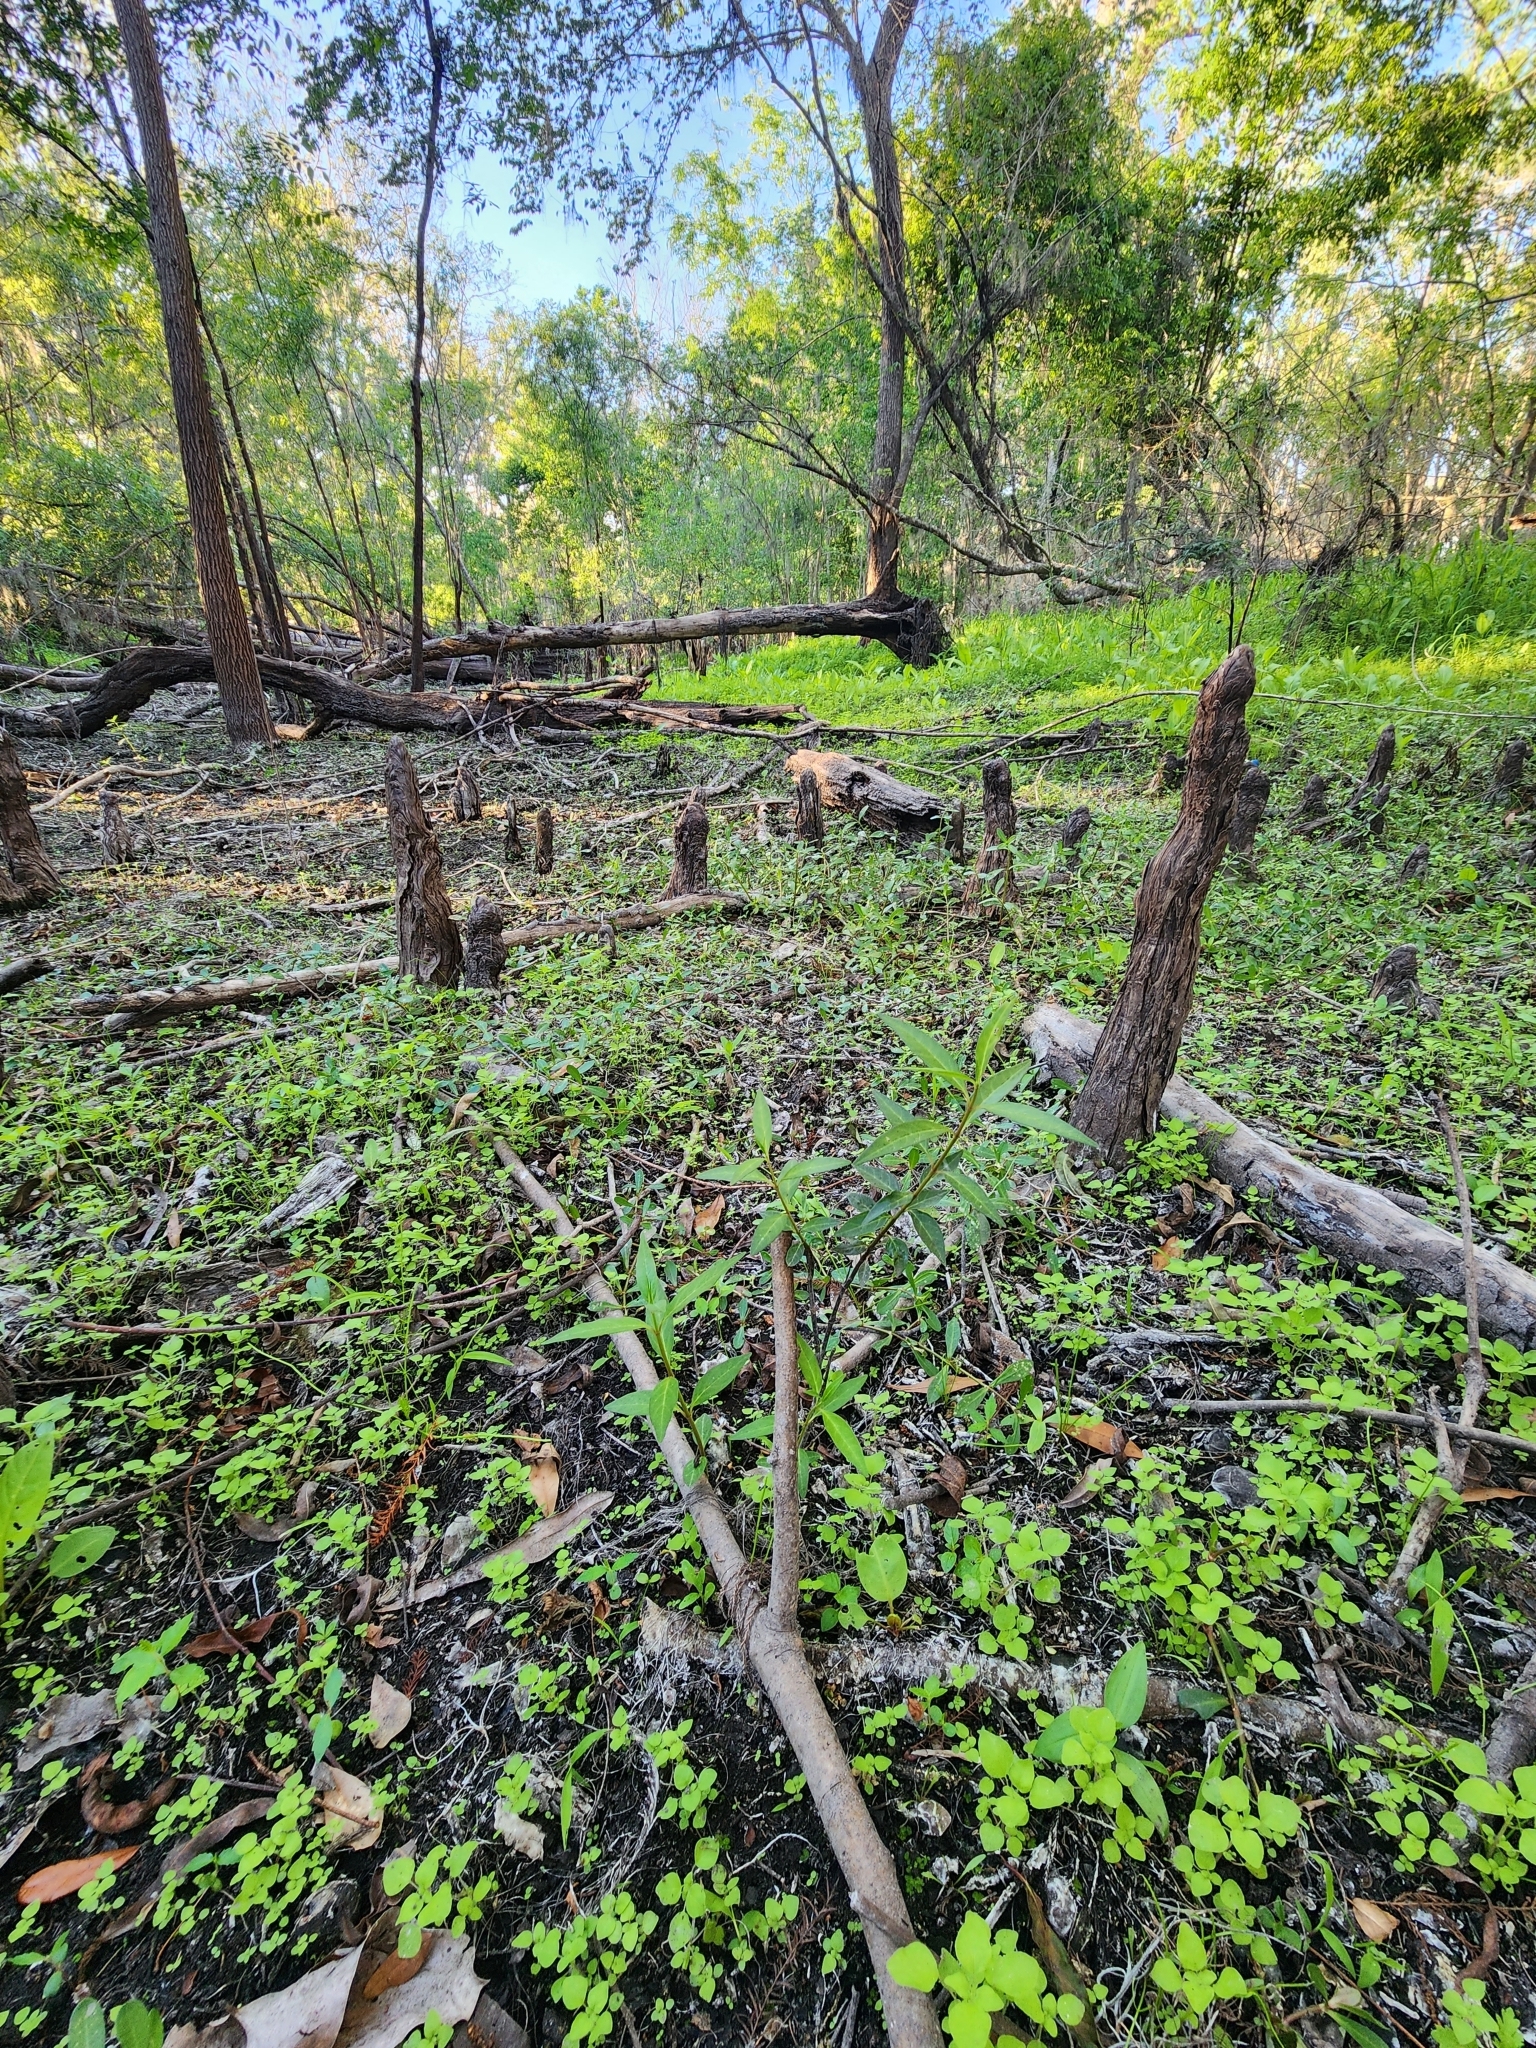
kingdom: Plantae
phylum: Tracheophyta
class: Magnoliopsida
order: Gentianales
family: Apocynaceae
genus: Asclepias
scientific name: Asclepias perennis
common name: Smooth-seed milkweed
